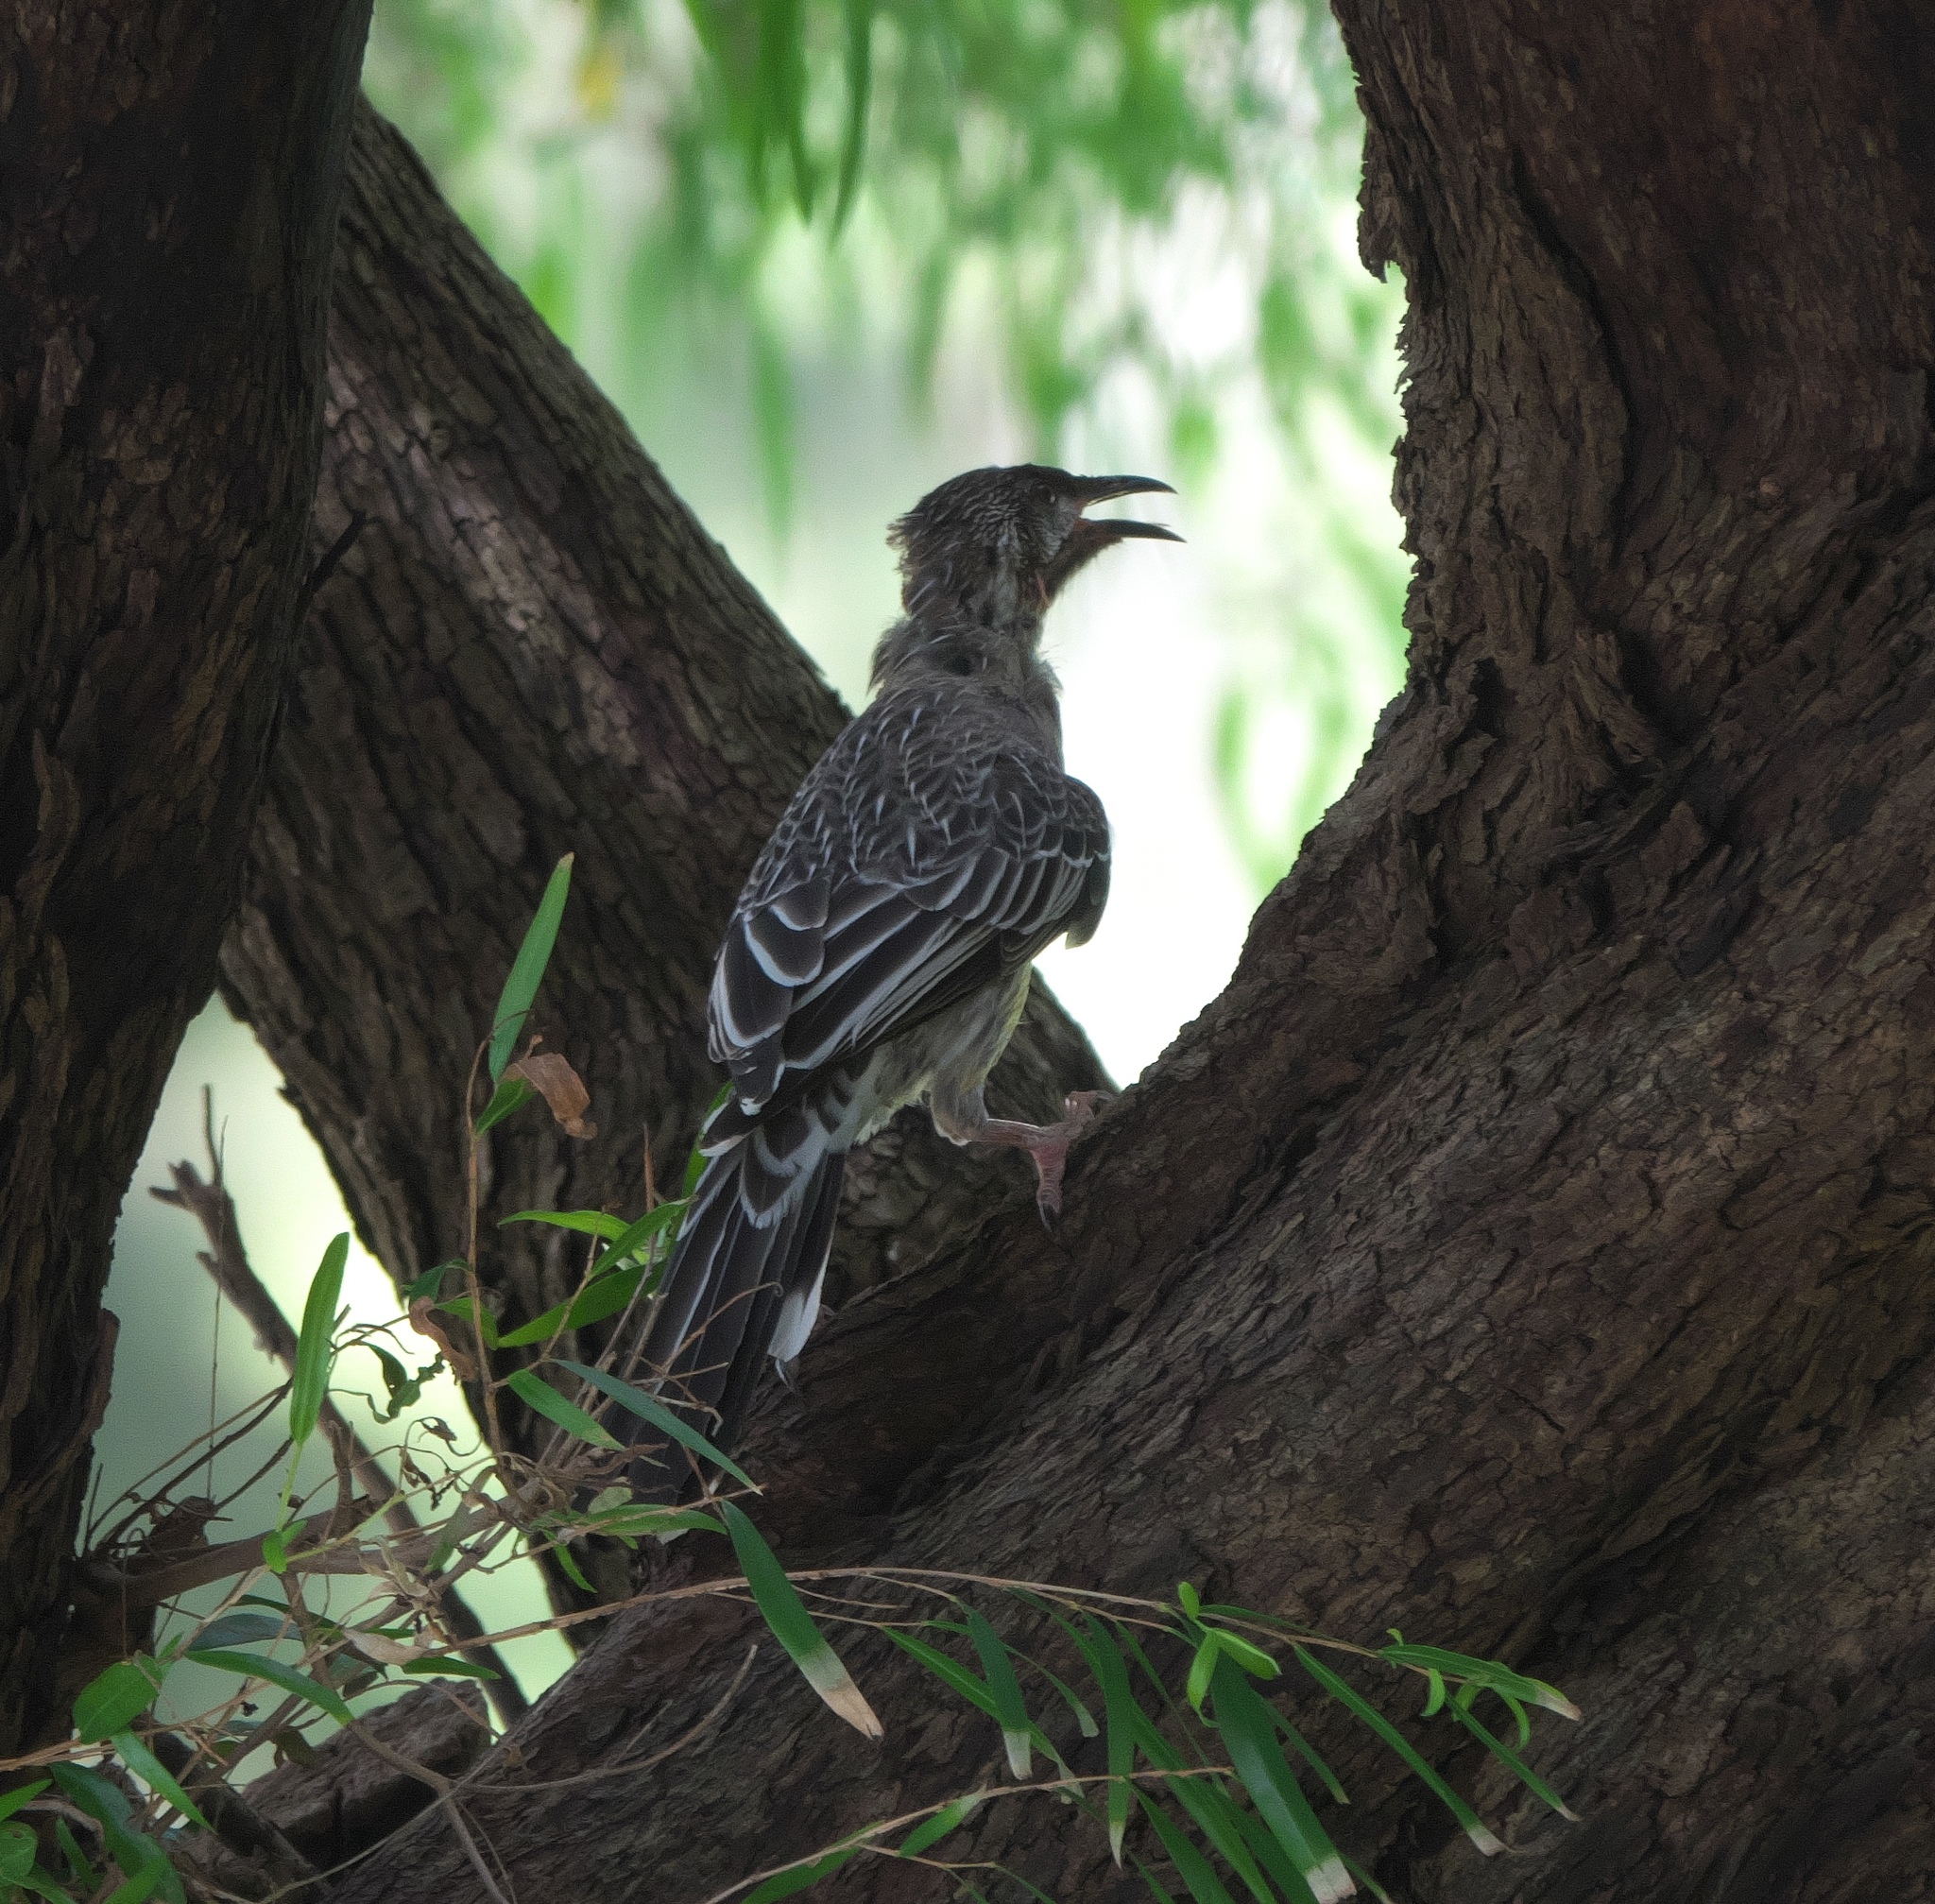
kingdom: Animalia
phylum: Chordata
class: Aves
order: Passeriformes
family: Meliphagidae
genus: Anthochaera
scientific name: Anthochaera carunculata
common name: Red wattlebird
